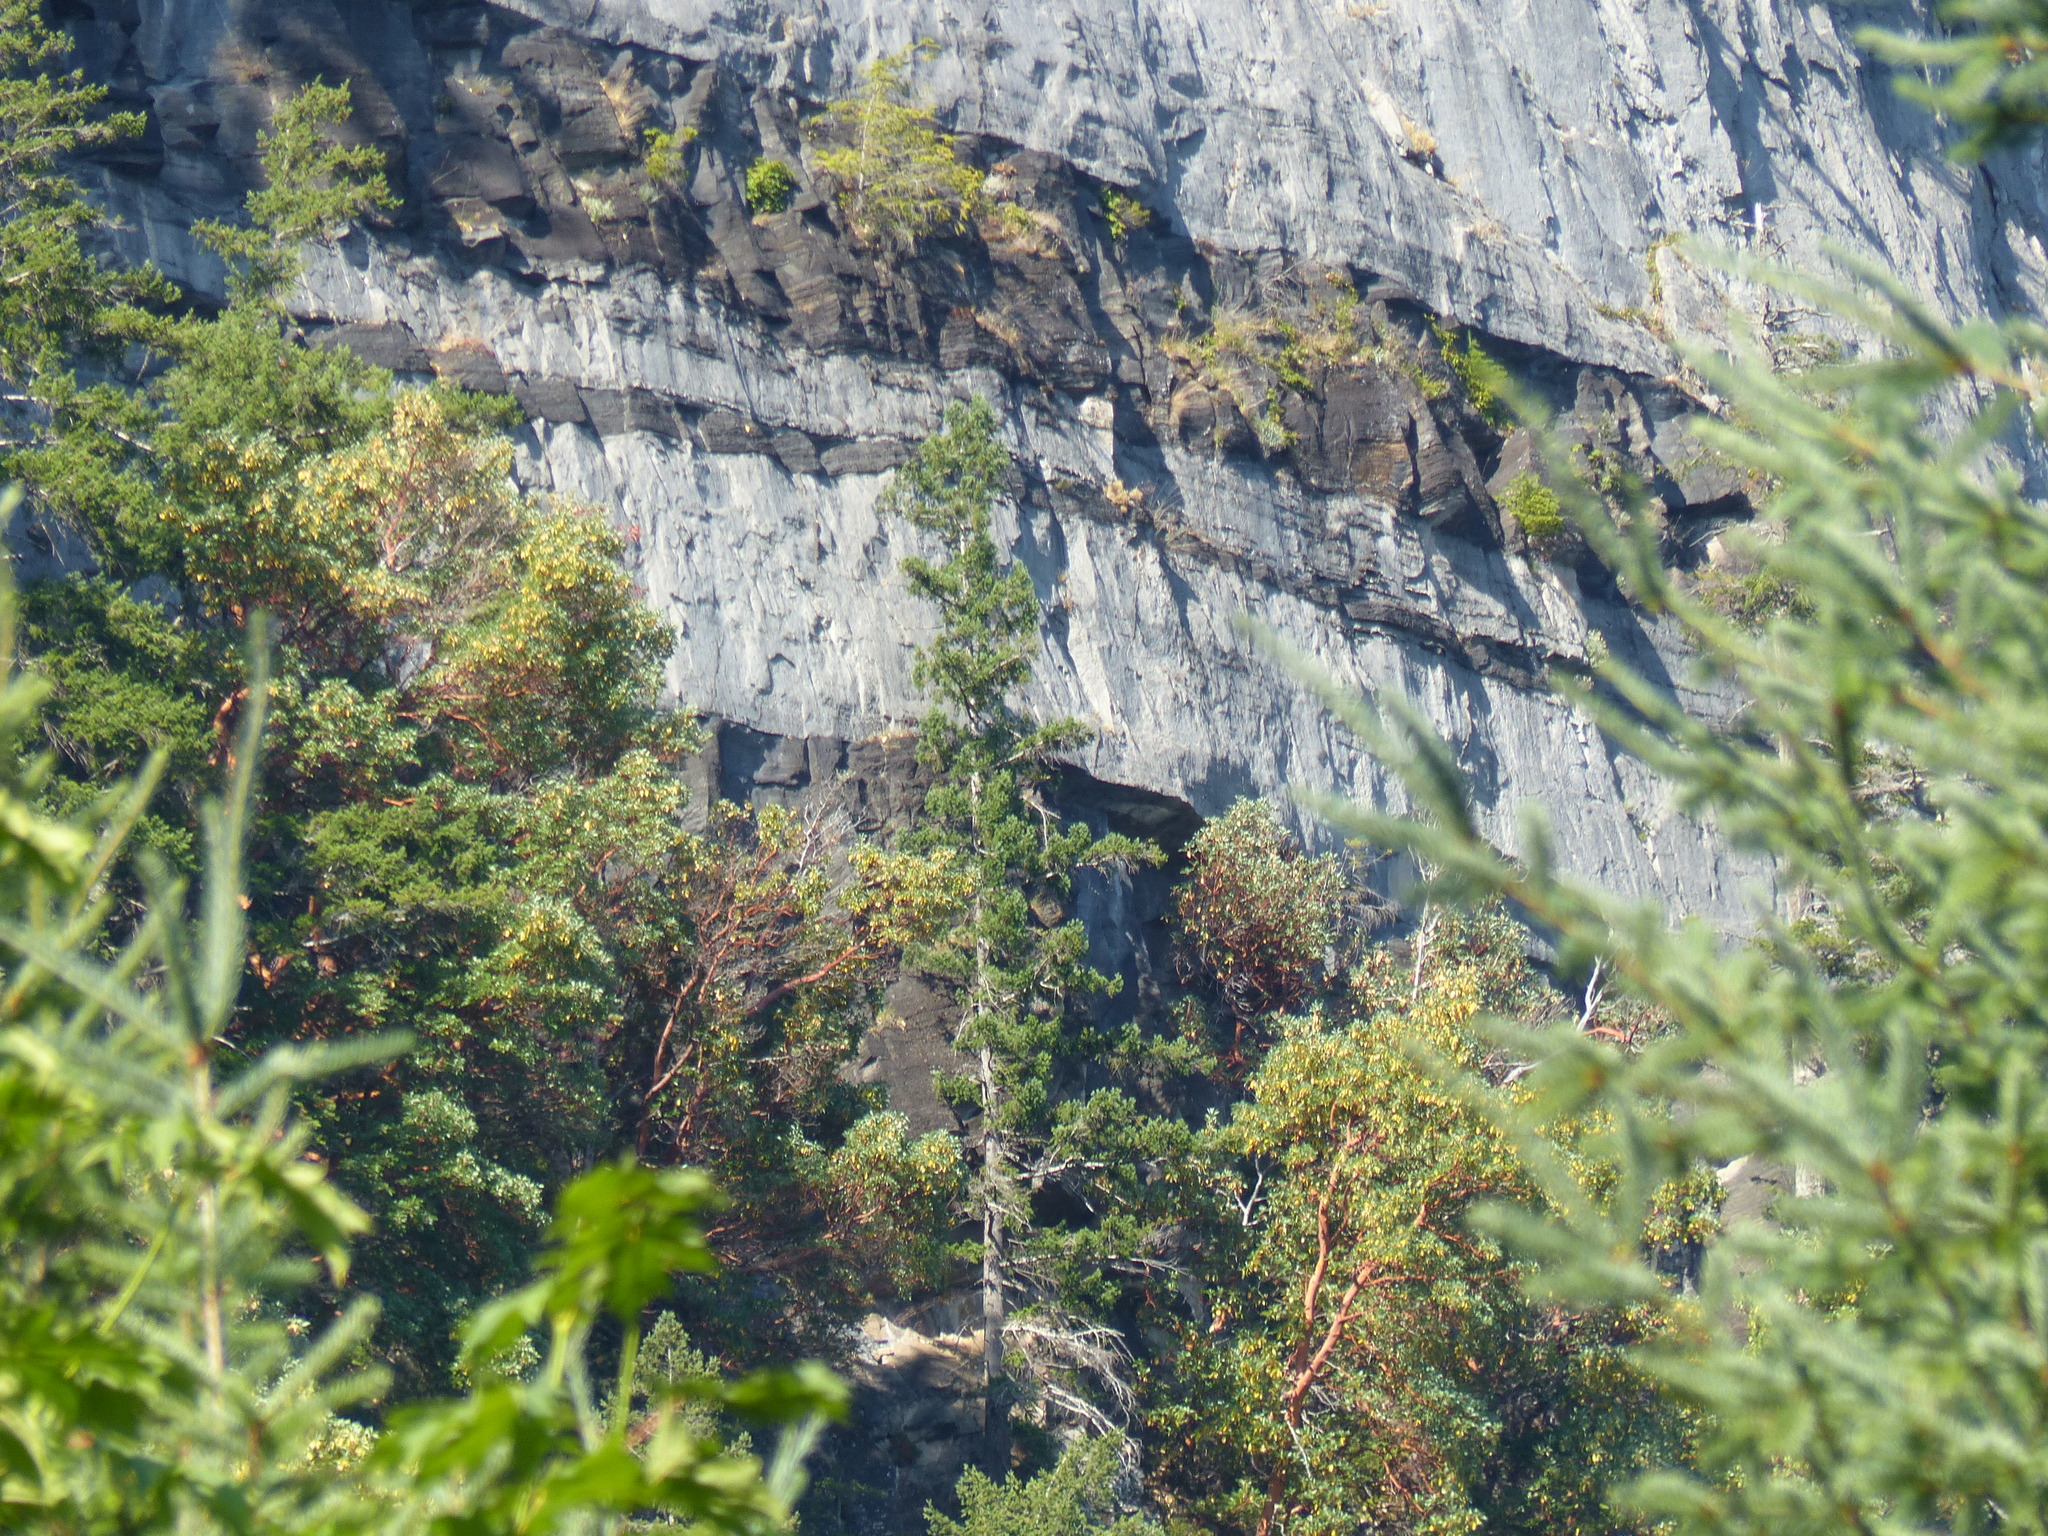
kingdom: Plantae
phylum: Tracheophyta
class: Magnoliopsida
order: Ericales
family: Ericaceae
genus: Arbutus
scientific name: Arbutus menziesii
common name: Pacific madrone
